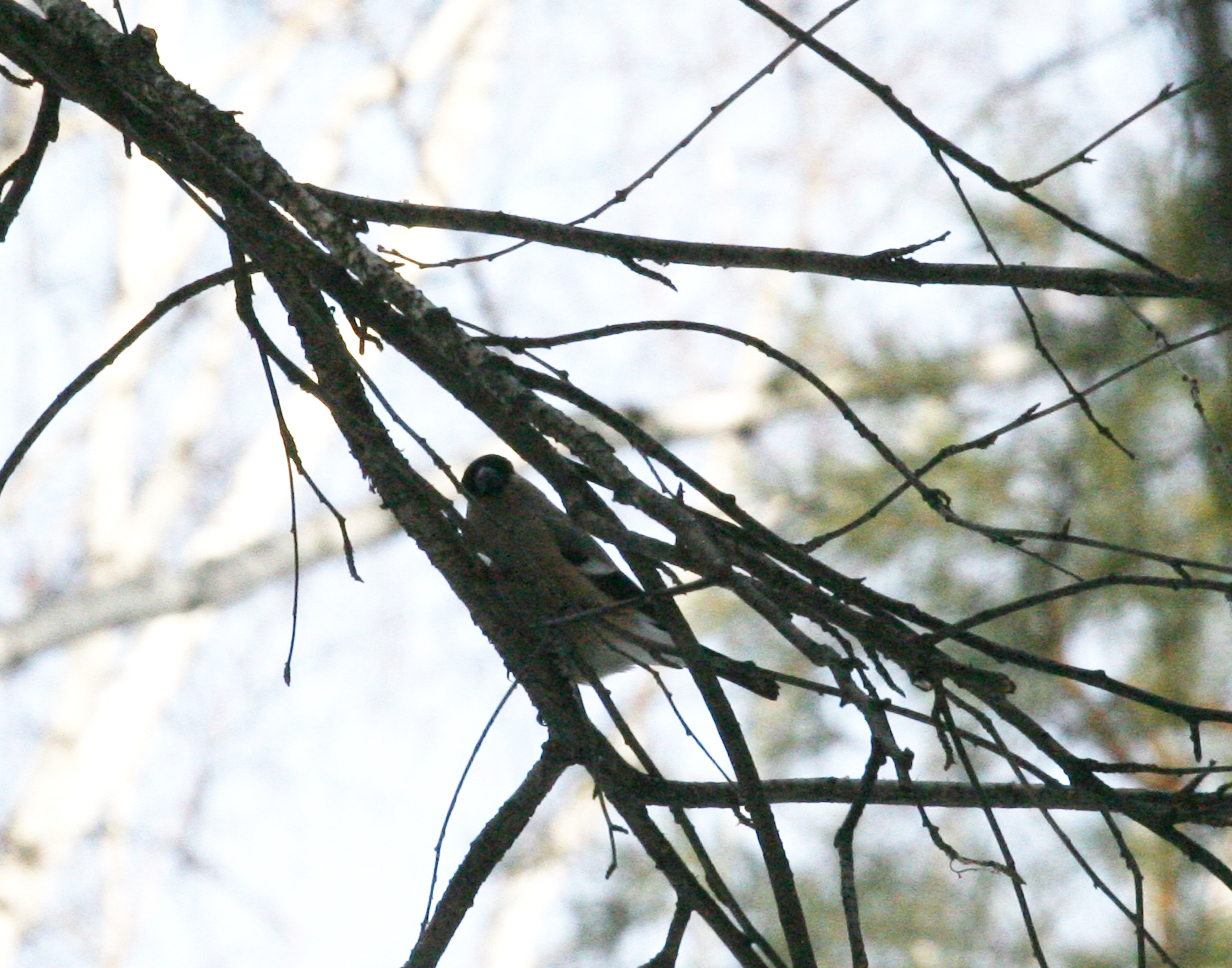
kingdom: Animalia
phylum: Chordata
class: Aves
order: Passeriformes
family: Fringillidae
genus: Pyrrhula
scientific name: Pyrrhula pyrrhula
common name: Eurasian bullfinch
